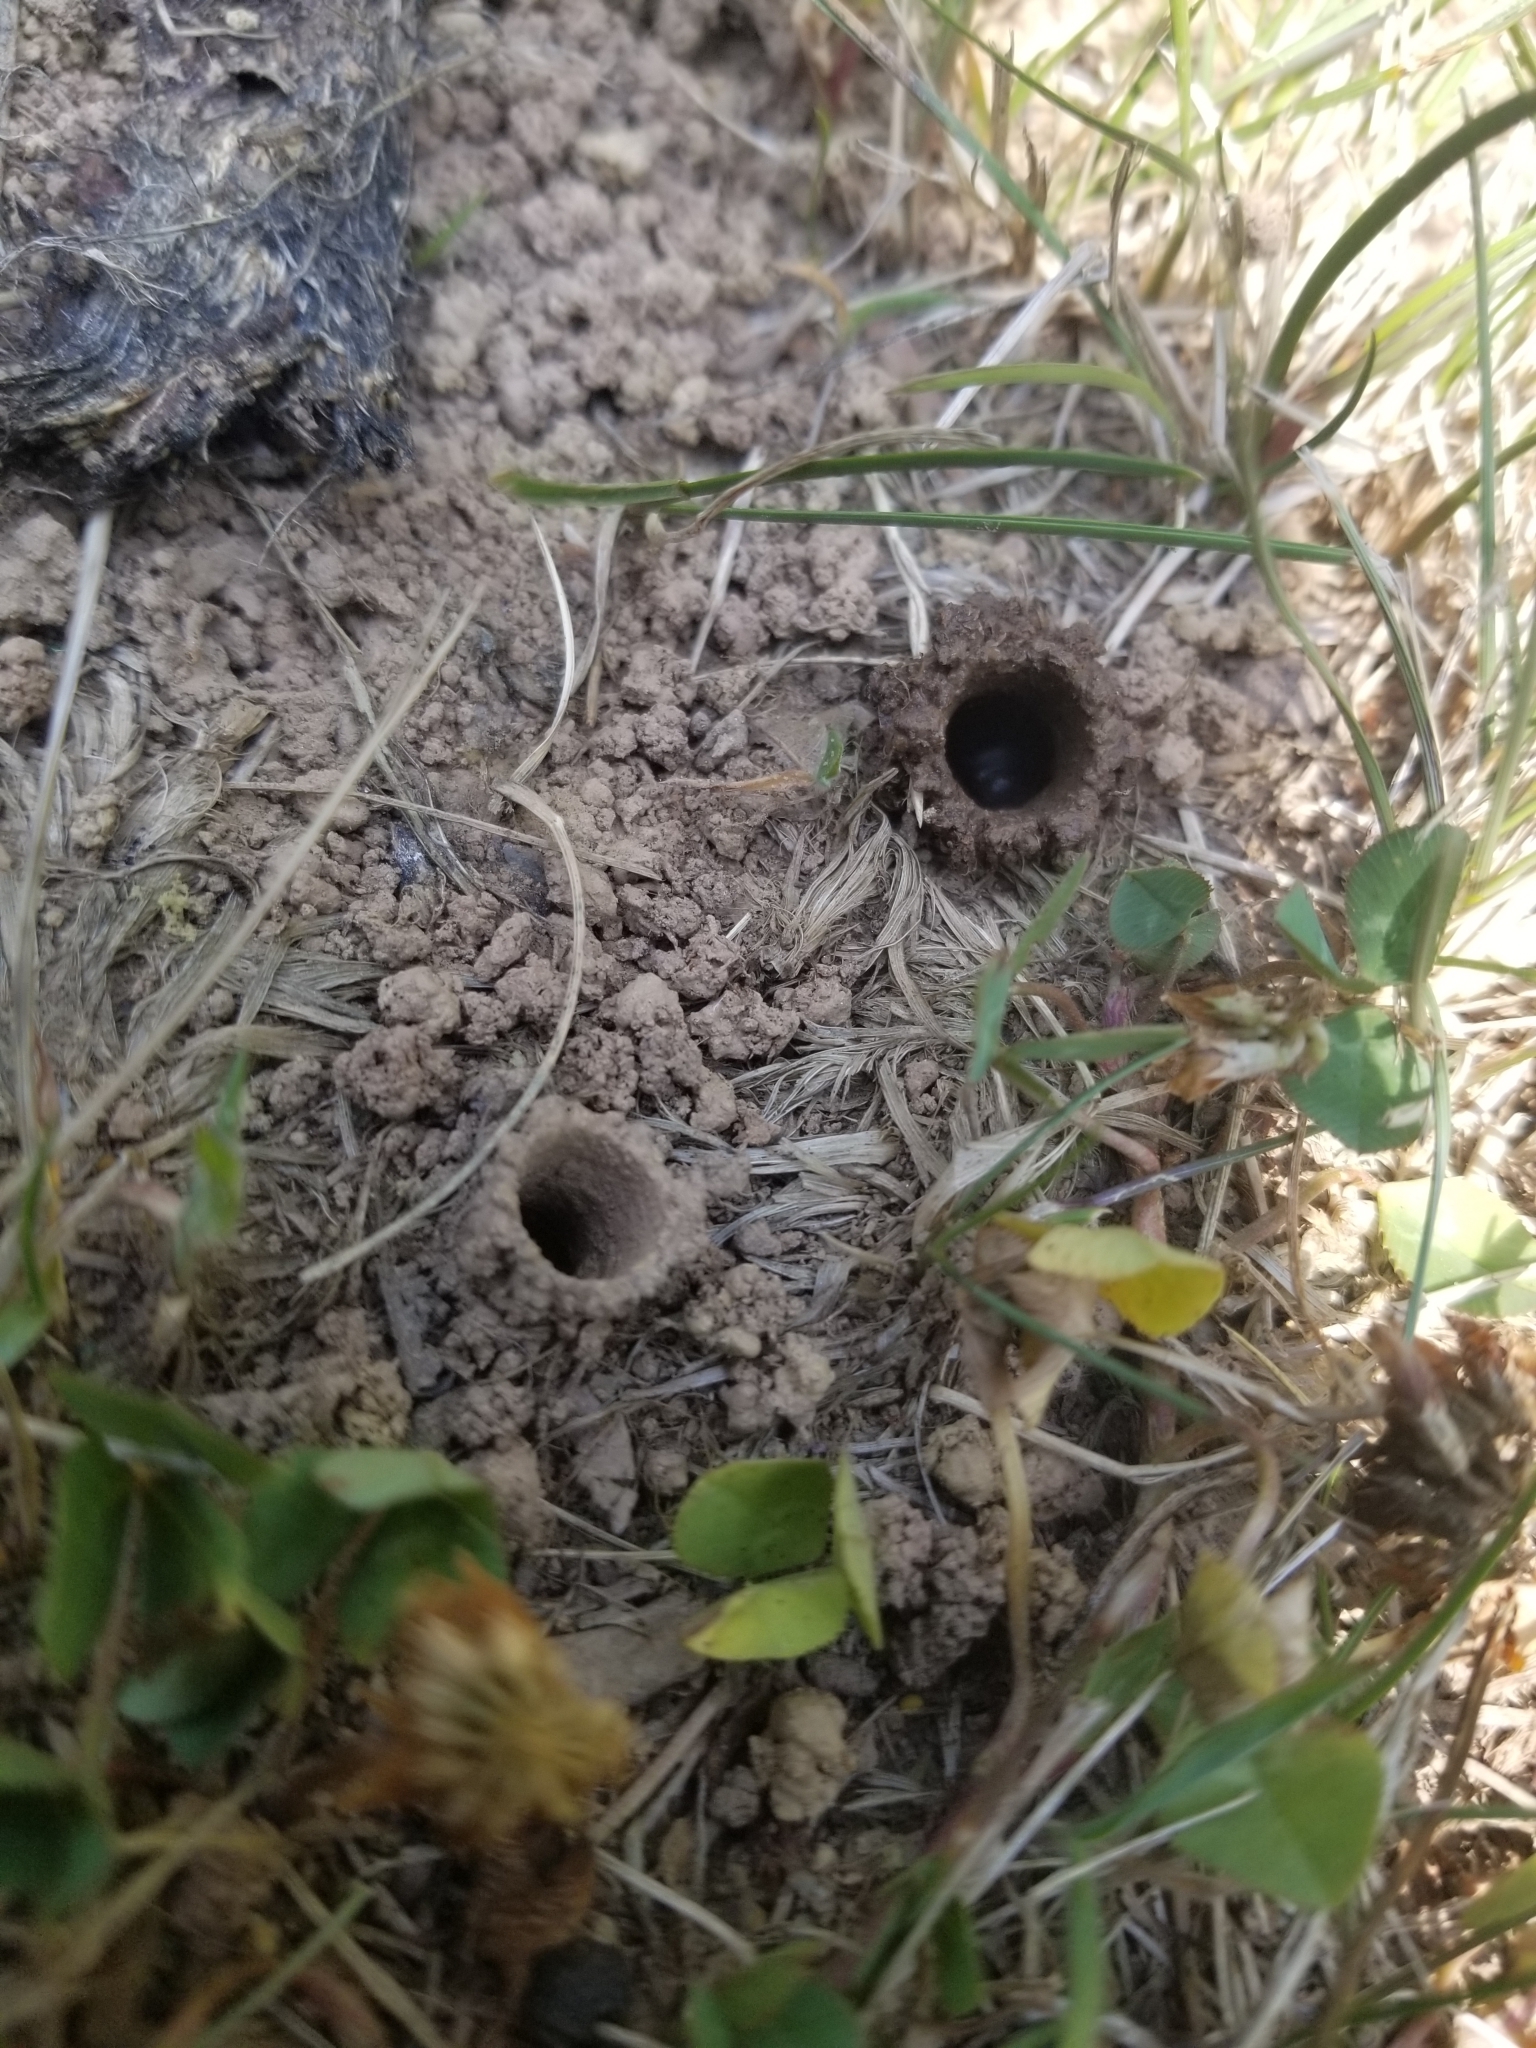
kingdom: Animalia
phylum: Arthropoda
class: Insecta
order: Hymenoptera
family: Apidae
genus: Ptilothrix
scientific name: Ptilothrix bombiformis
